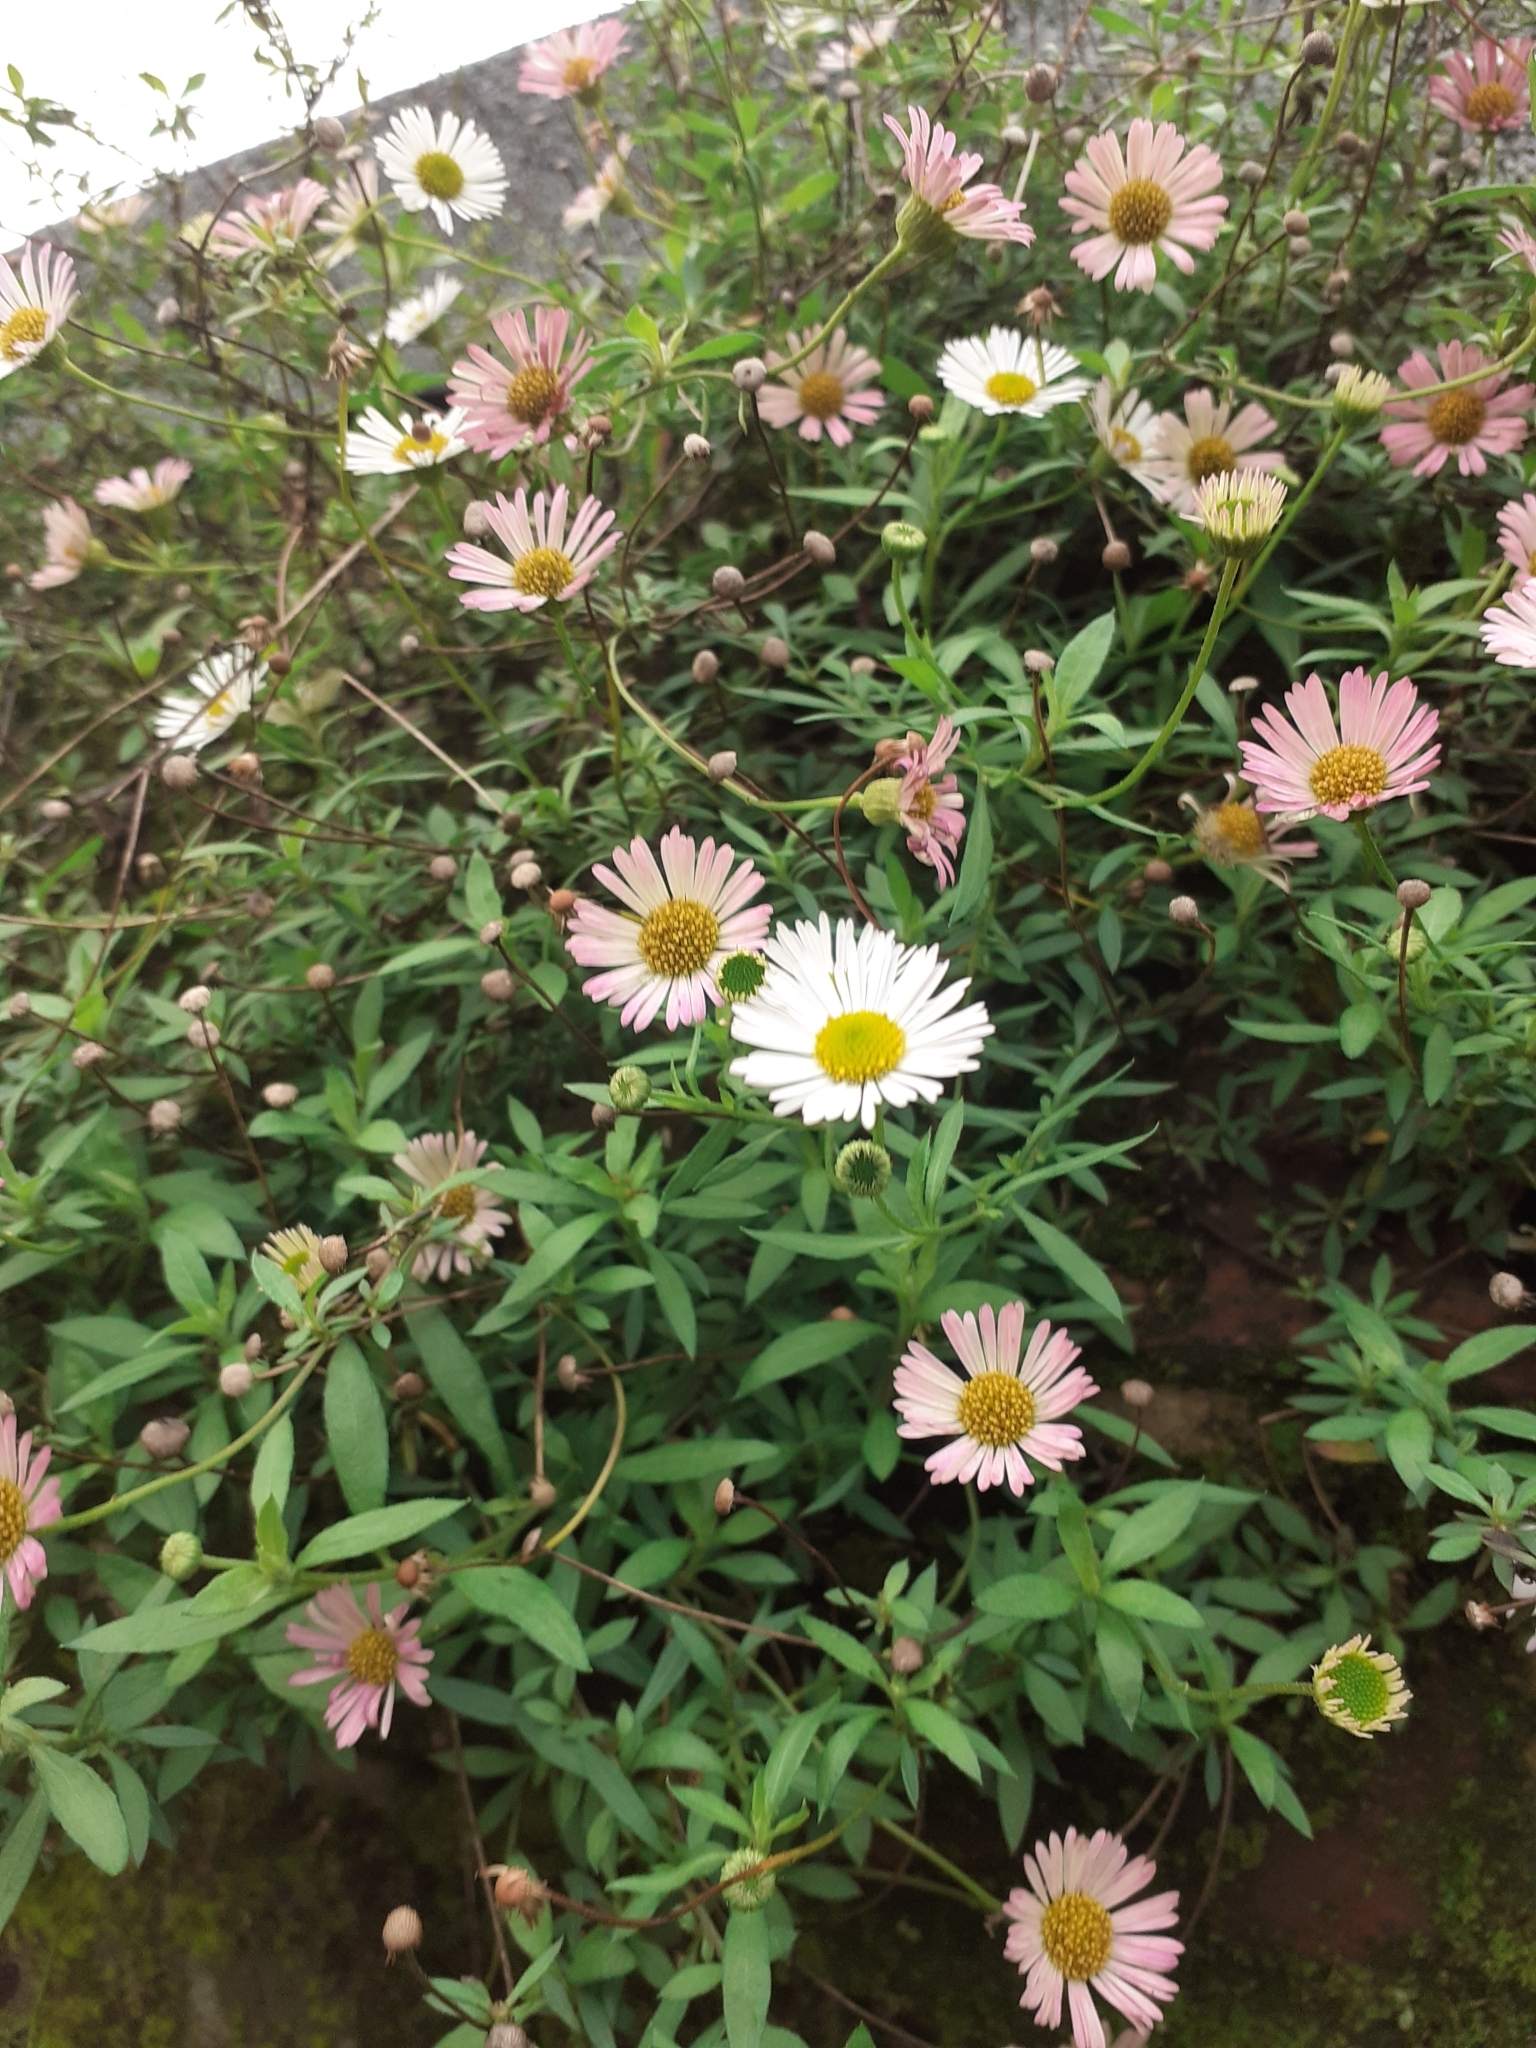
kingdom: Plantae
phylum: Tracheophyta
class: Magnoliopsida
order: Asterales
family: Asteraceae
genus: Erigeron
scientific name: Erigeron karvinskianus
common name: Mexican fleabane
